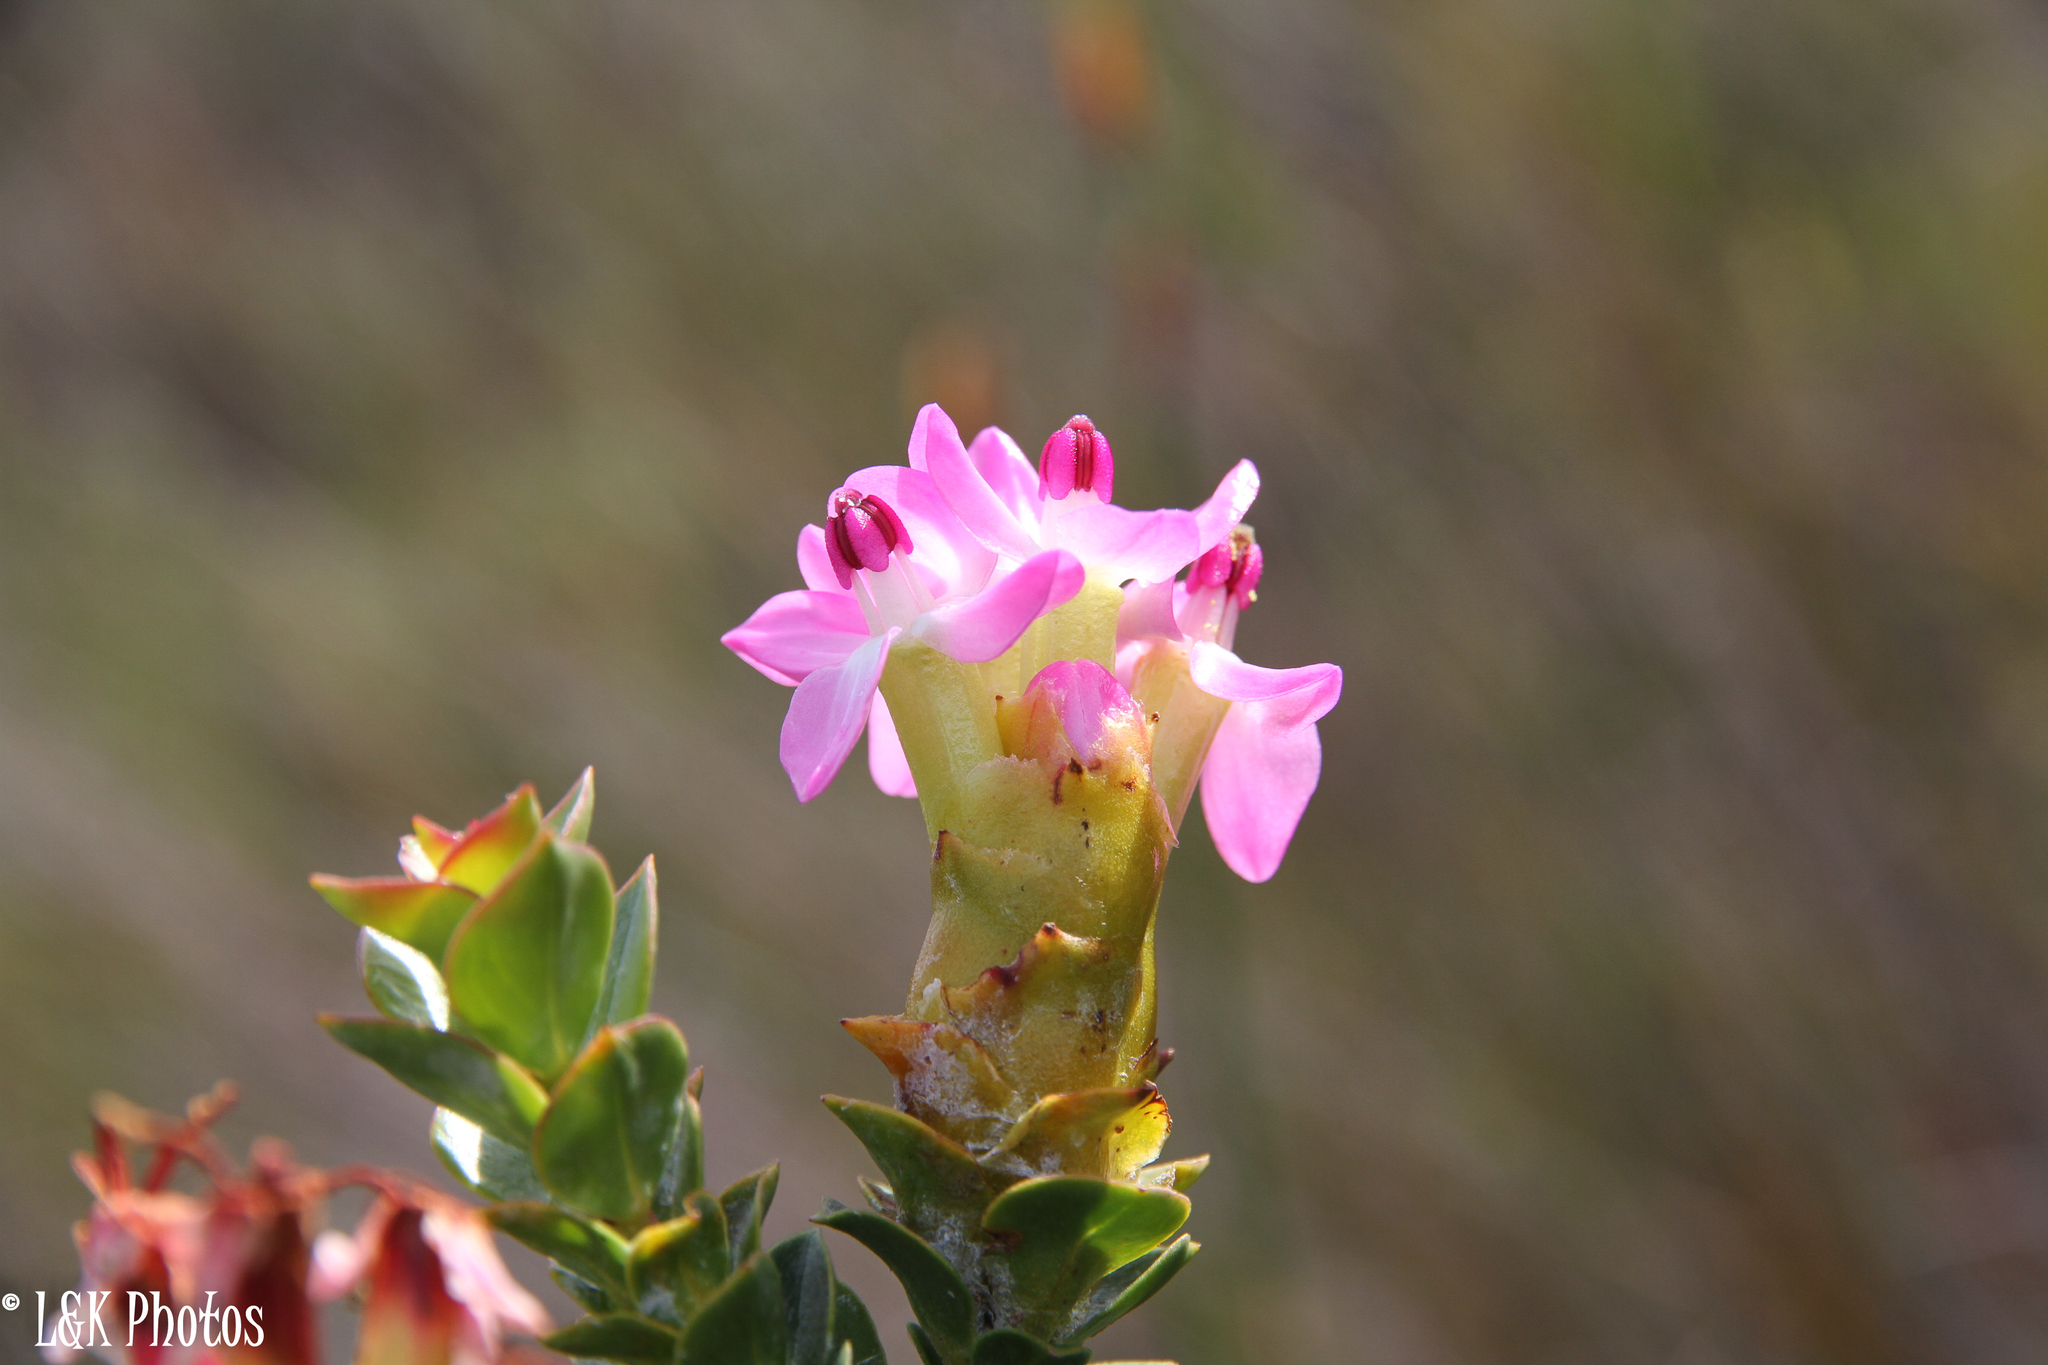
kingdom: Plantae
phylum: Tracheophyta
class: Magnoliopsida
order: Myrtales
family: Penaeaceae
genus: Saltera
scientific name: Saltera sarcocolla
